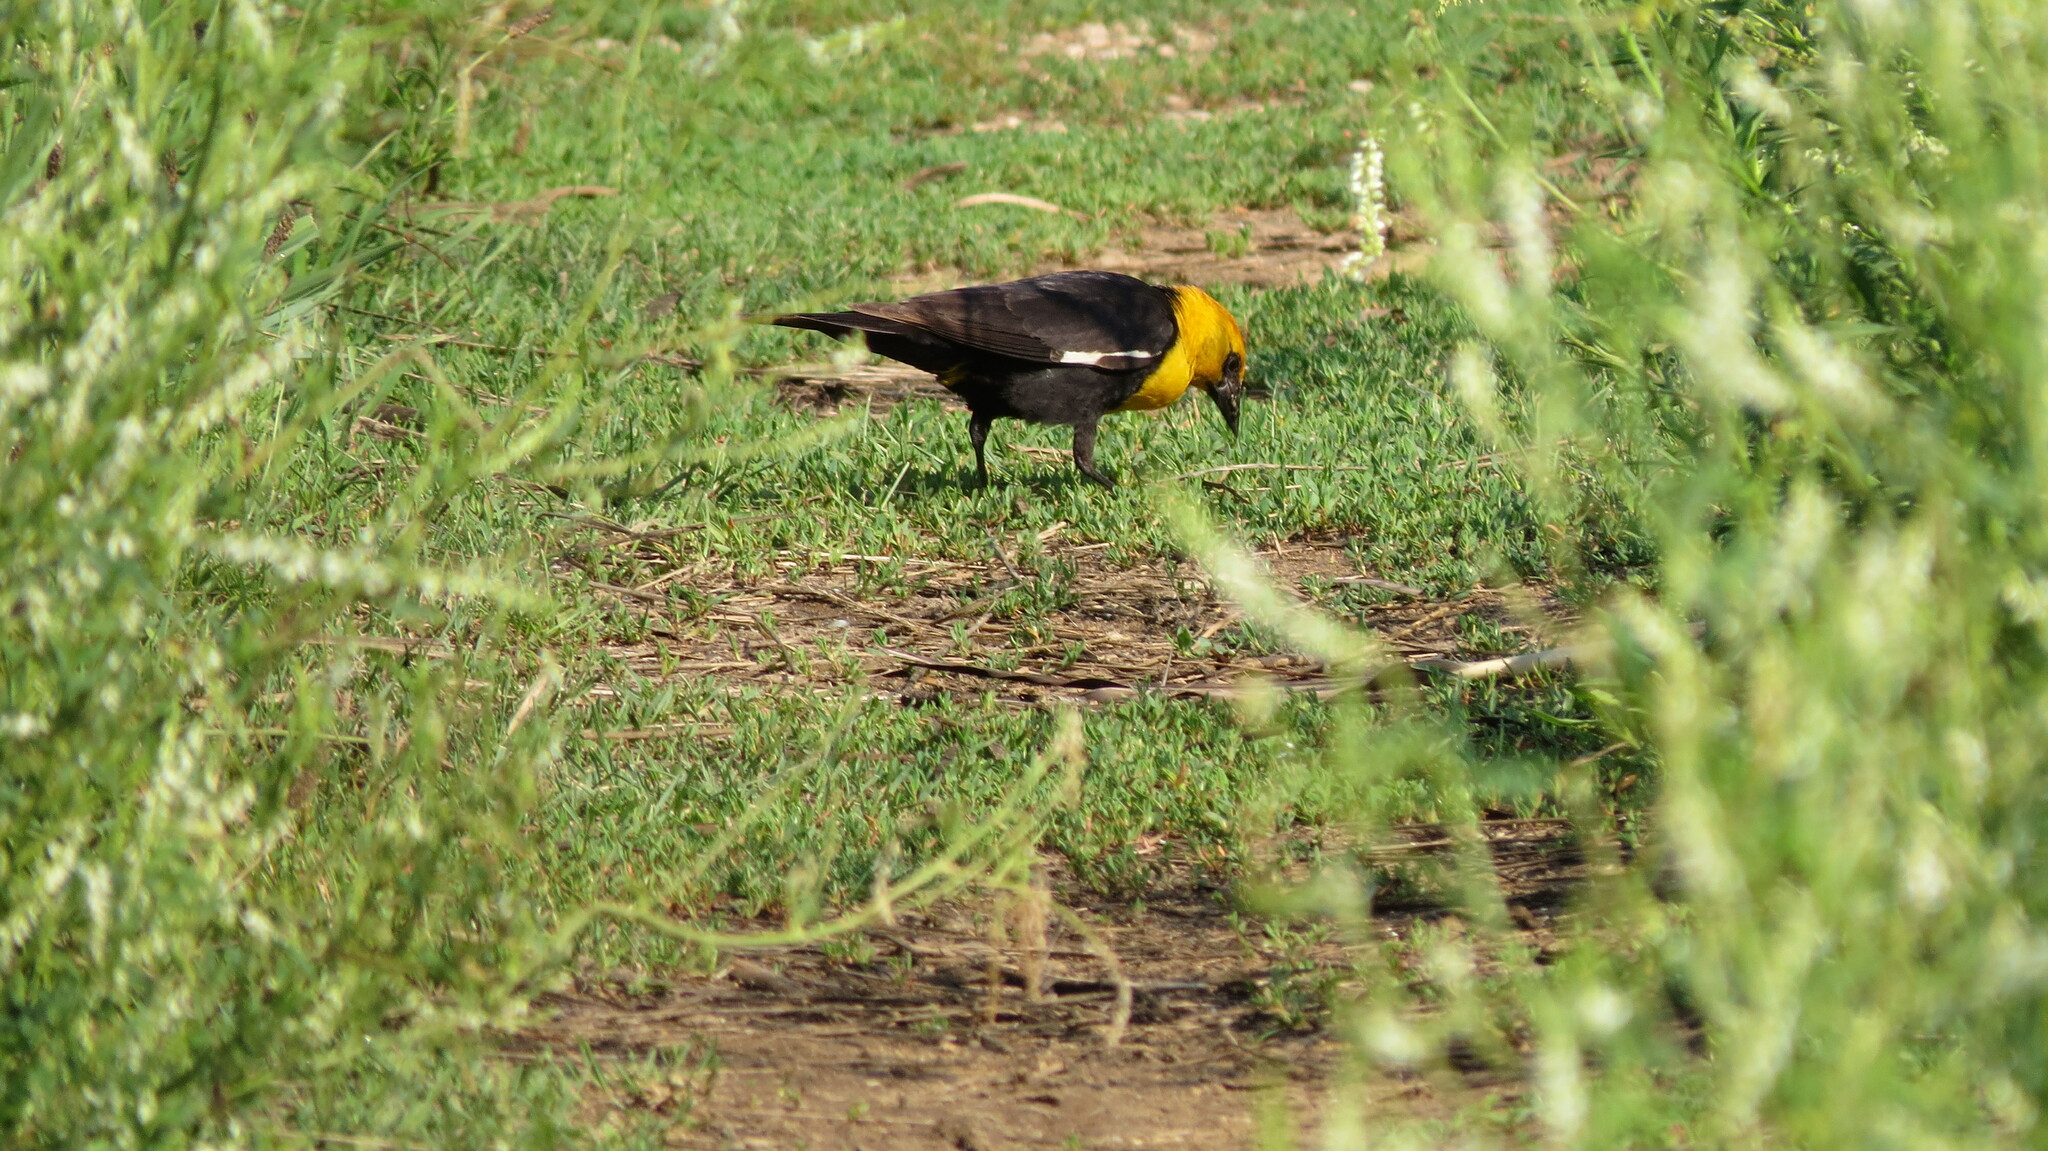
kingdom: Animalia
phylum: Chordata
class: Aves
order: Passeriformes
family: Icteridae
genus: Xanthocephalus
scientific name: Xanthocephalus xanthocephalus
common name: Yellow-headed blackbird
